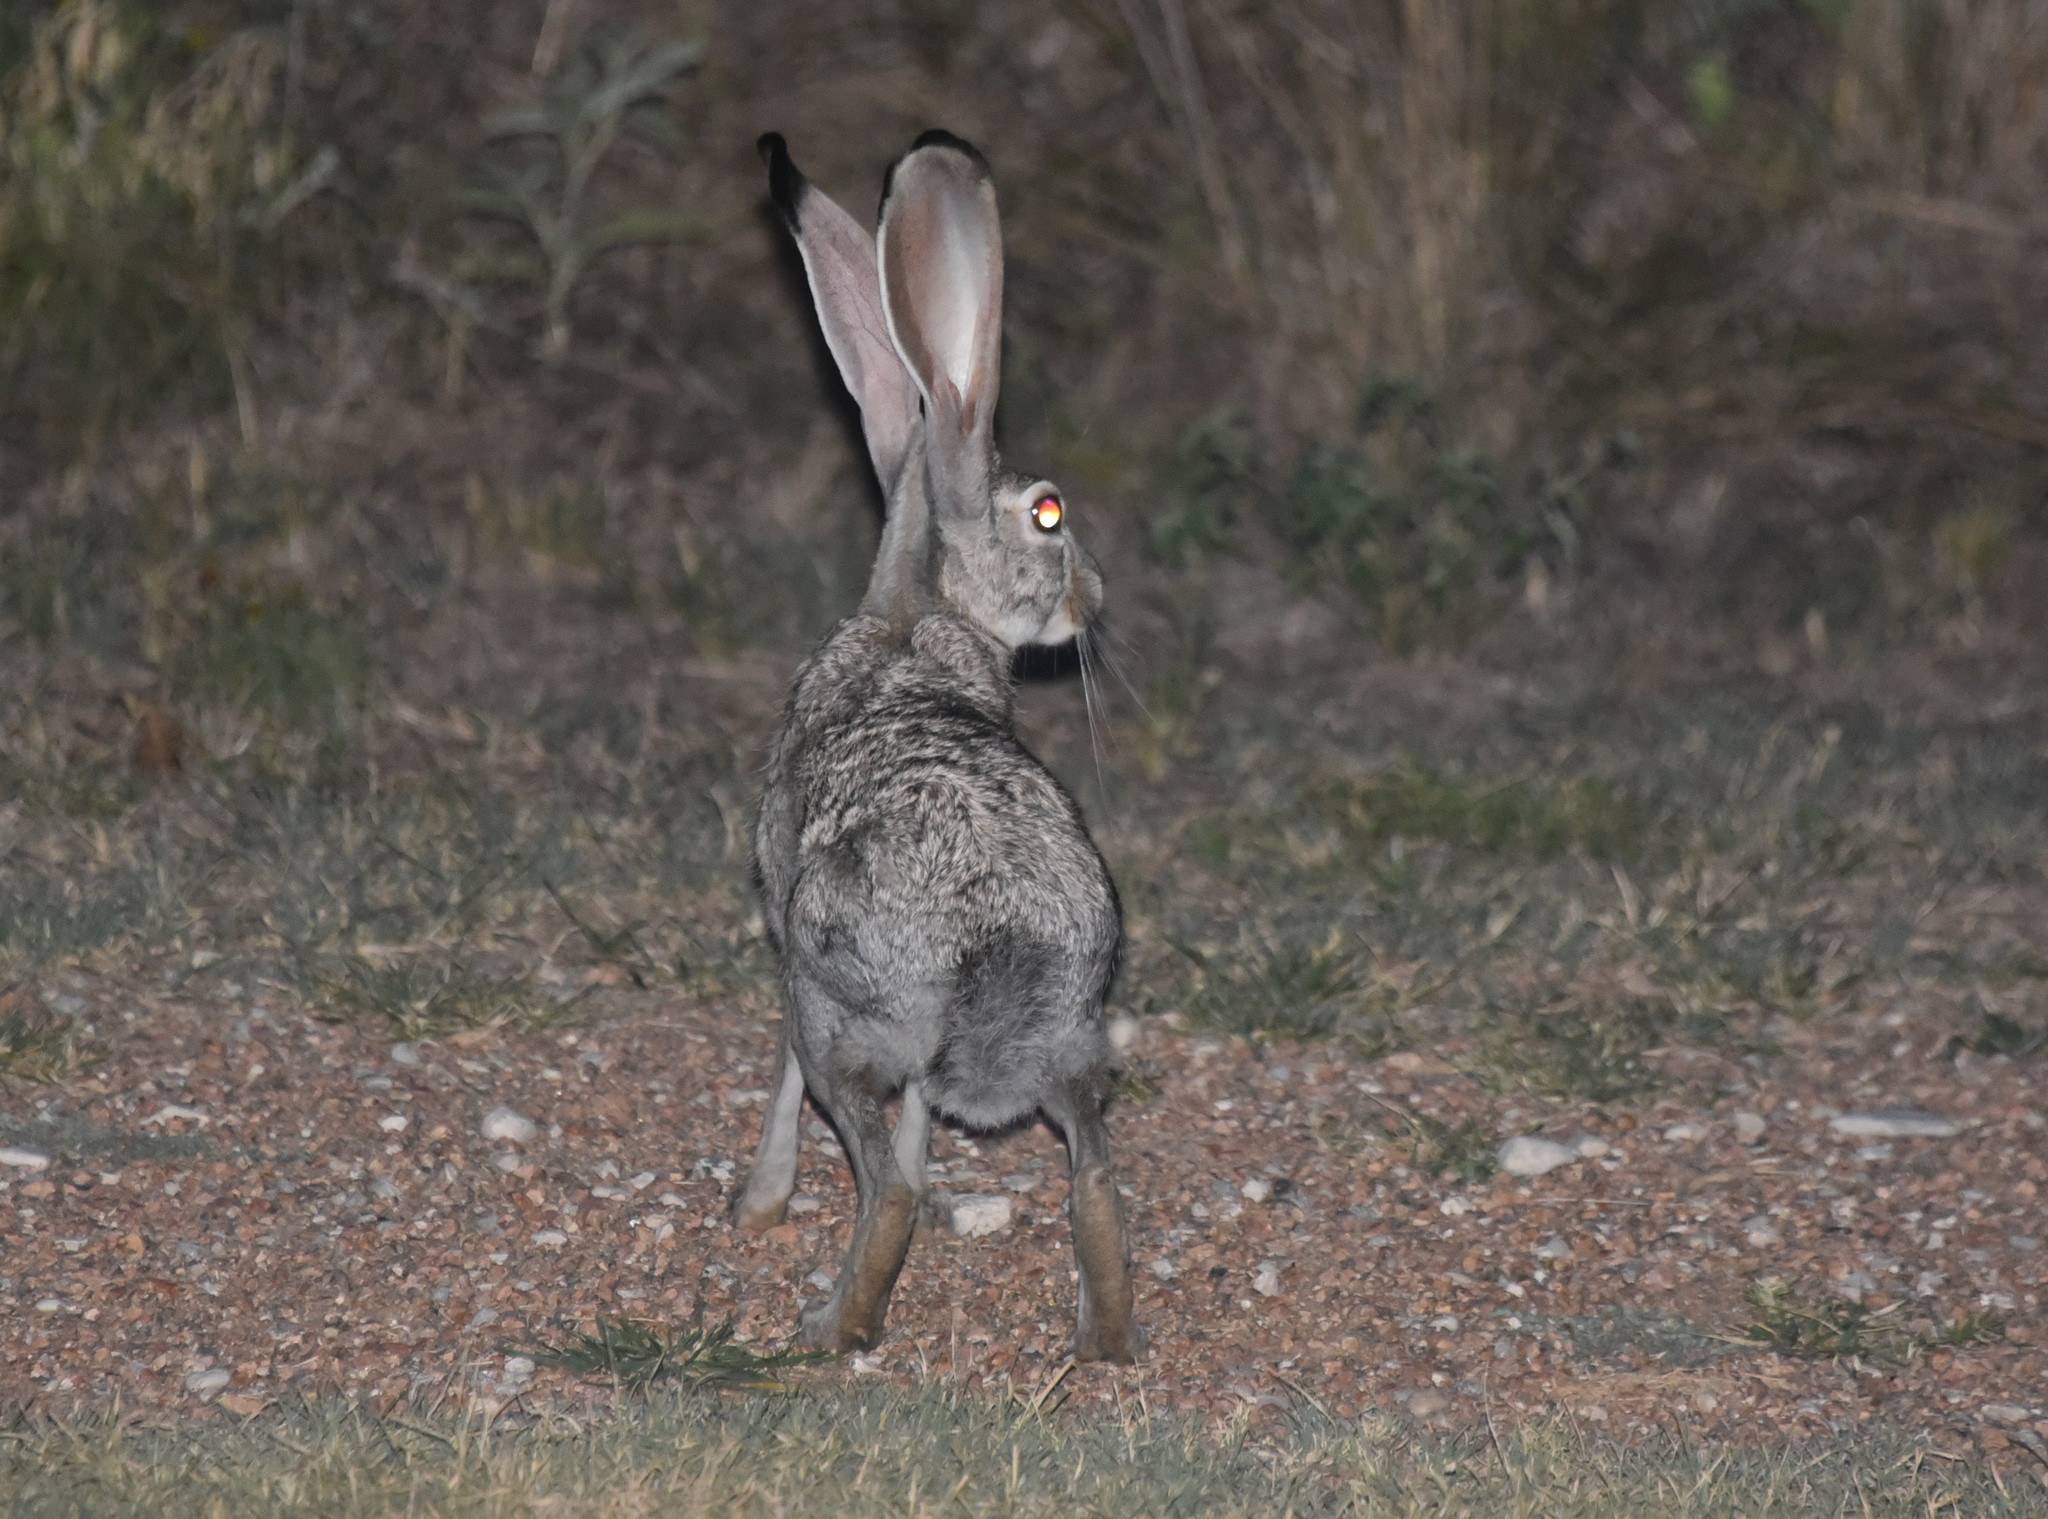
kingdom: Animalia
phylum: Chordata
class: Mammalia
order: Lagomorpha
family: Leporidae
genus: Lepus
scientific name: Lepus californicus
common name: Black-tailed jackrabbit
